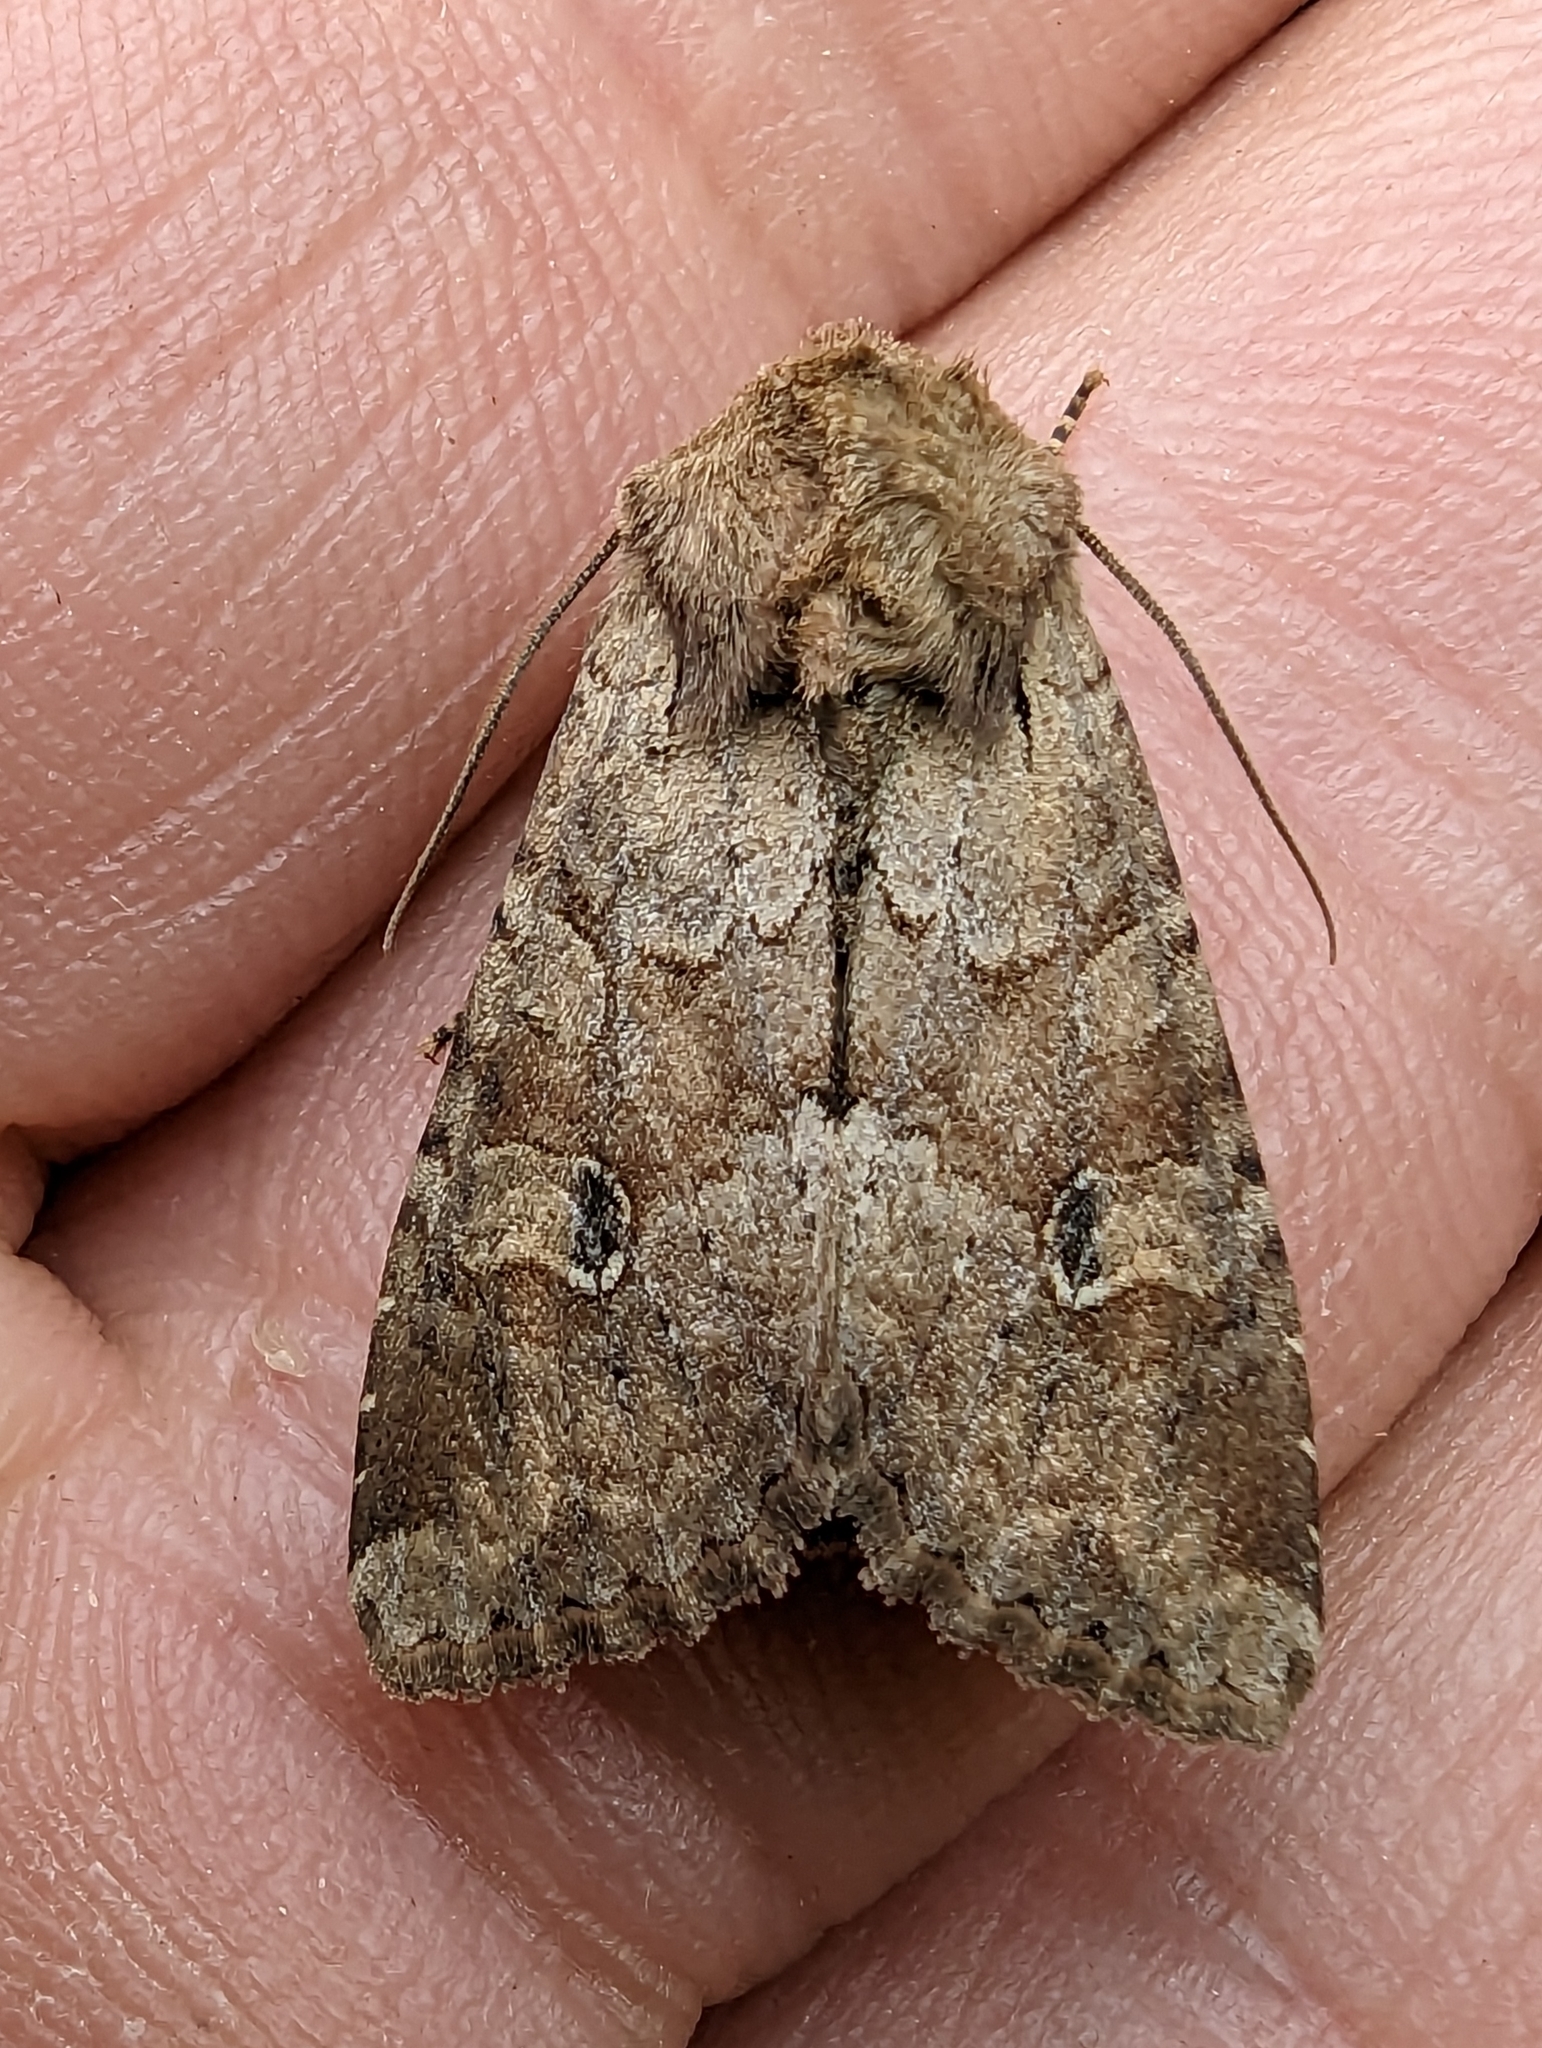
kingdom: Animalia
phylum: Arthropoda
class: Insecta
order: Lepidoptera
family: Noctuidae
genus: Apamea
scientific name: Apamea sordens
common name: Rustic shoulder-knot
